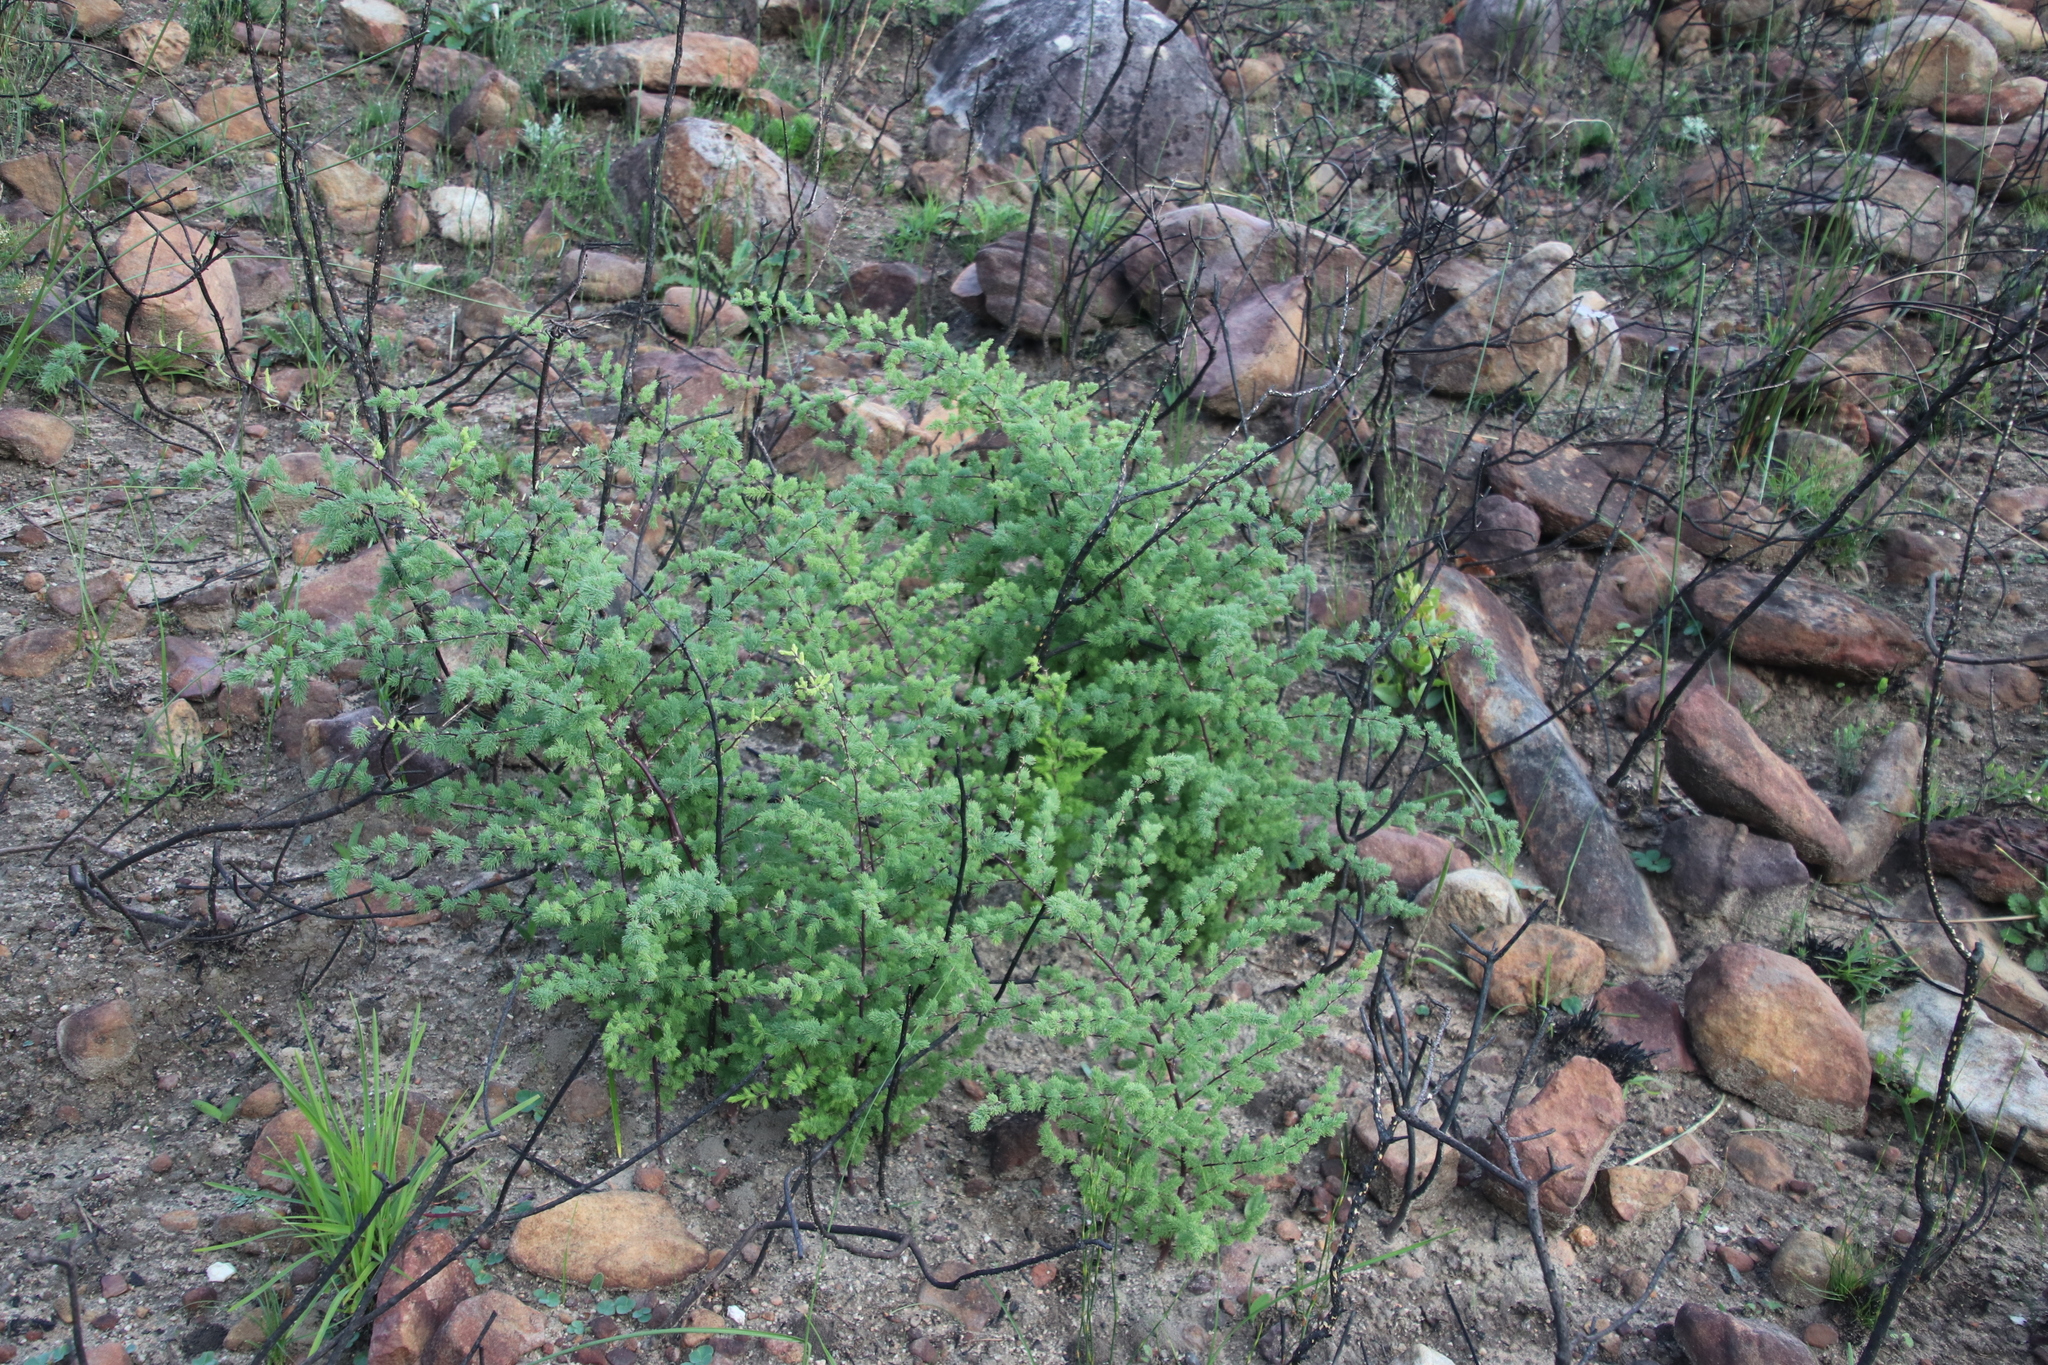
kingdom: Plantae
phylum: Tracheophyta
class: Liliopsida
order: Asparagales
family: Asparagaceae
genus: Asparagus
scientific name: Asparagus rubicundus
